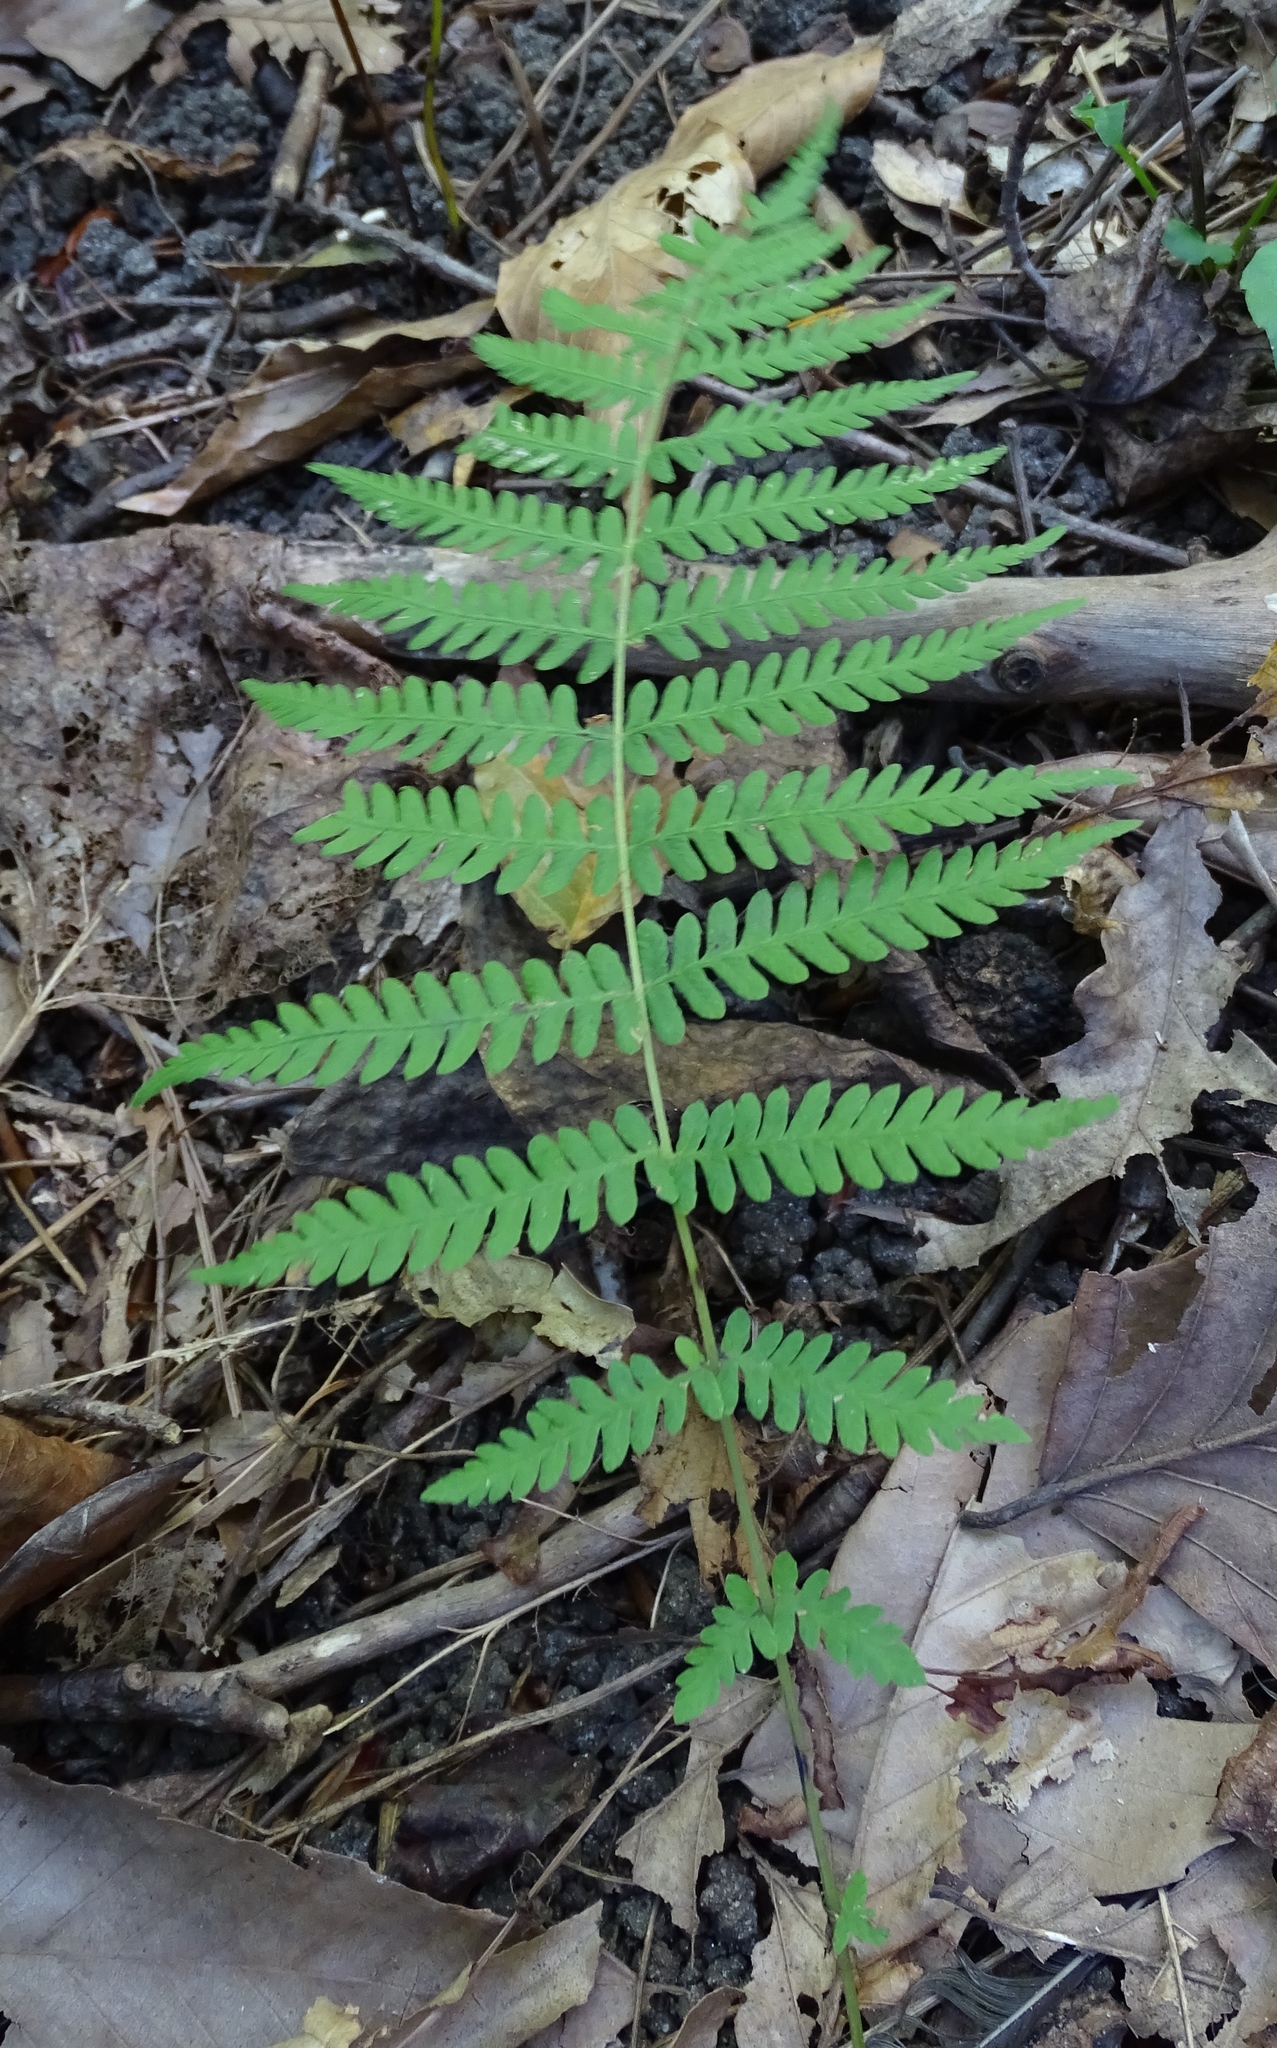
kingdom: Plantae
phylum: Tracheophyta
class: Polypodiopsida
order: Polypodiales
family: Thelypteridaceae
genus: Amauropelta
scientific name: Amauropelta noveboracensis
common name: New york fern
